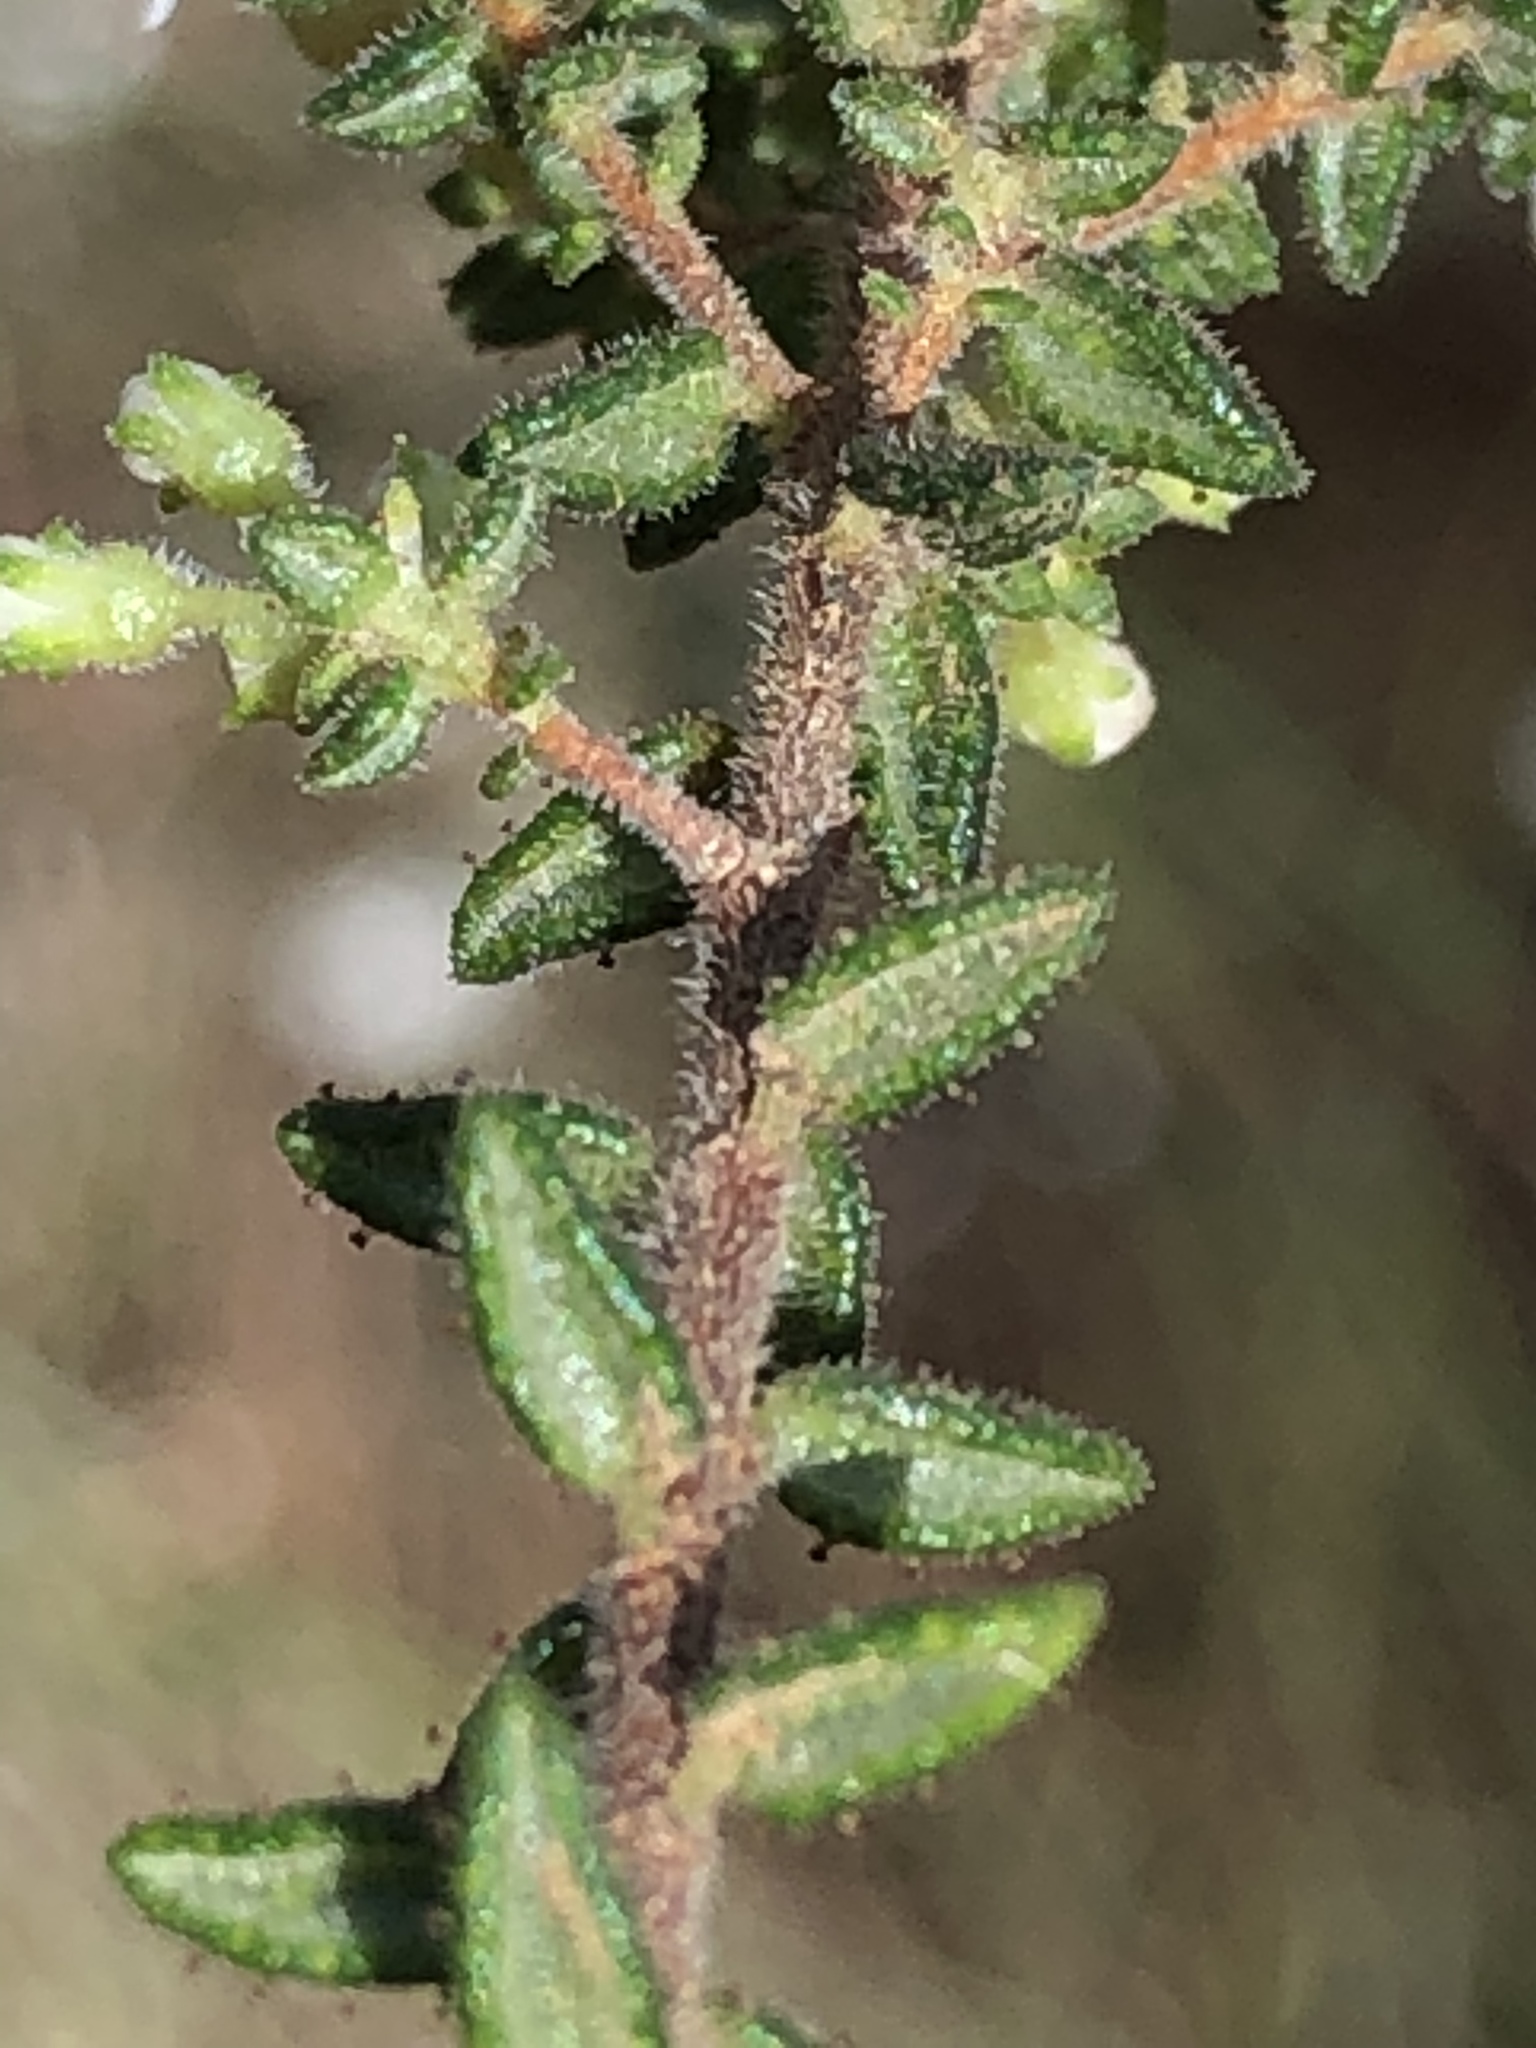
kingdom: Plantae
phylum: Tracheophyta
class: Magnoliopsida
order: Sapindales
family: Rutaceae
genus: Agathosma
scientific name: Agathosma mundtii
